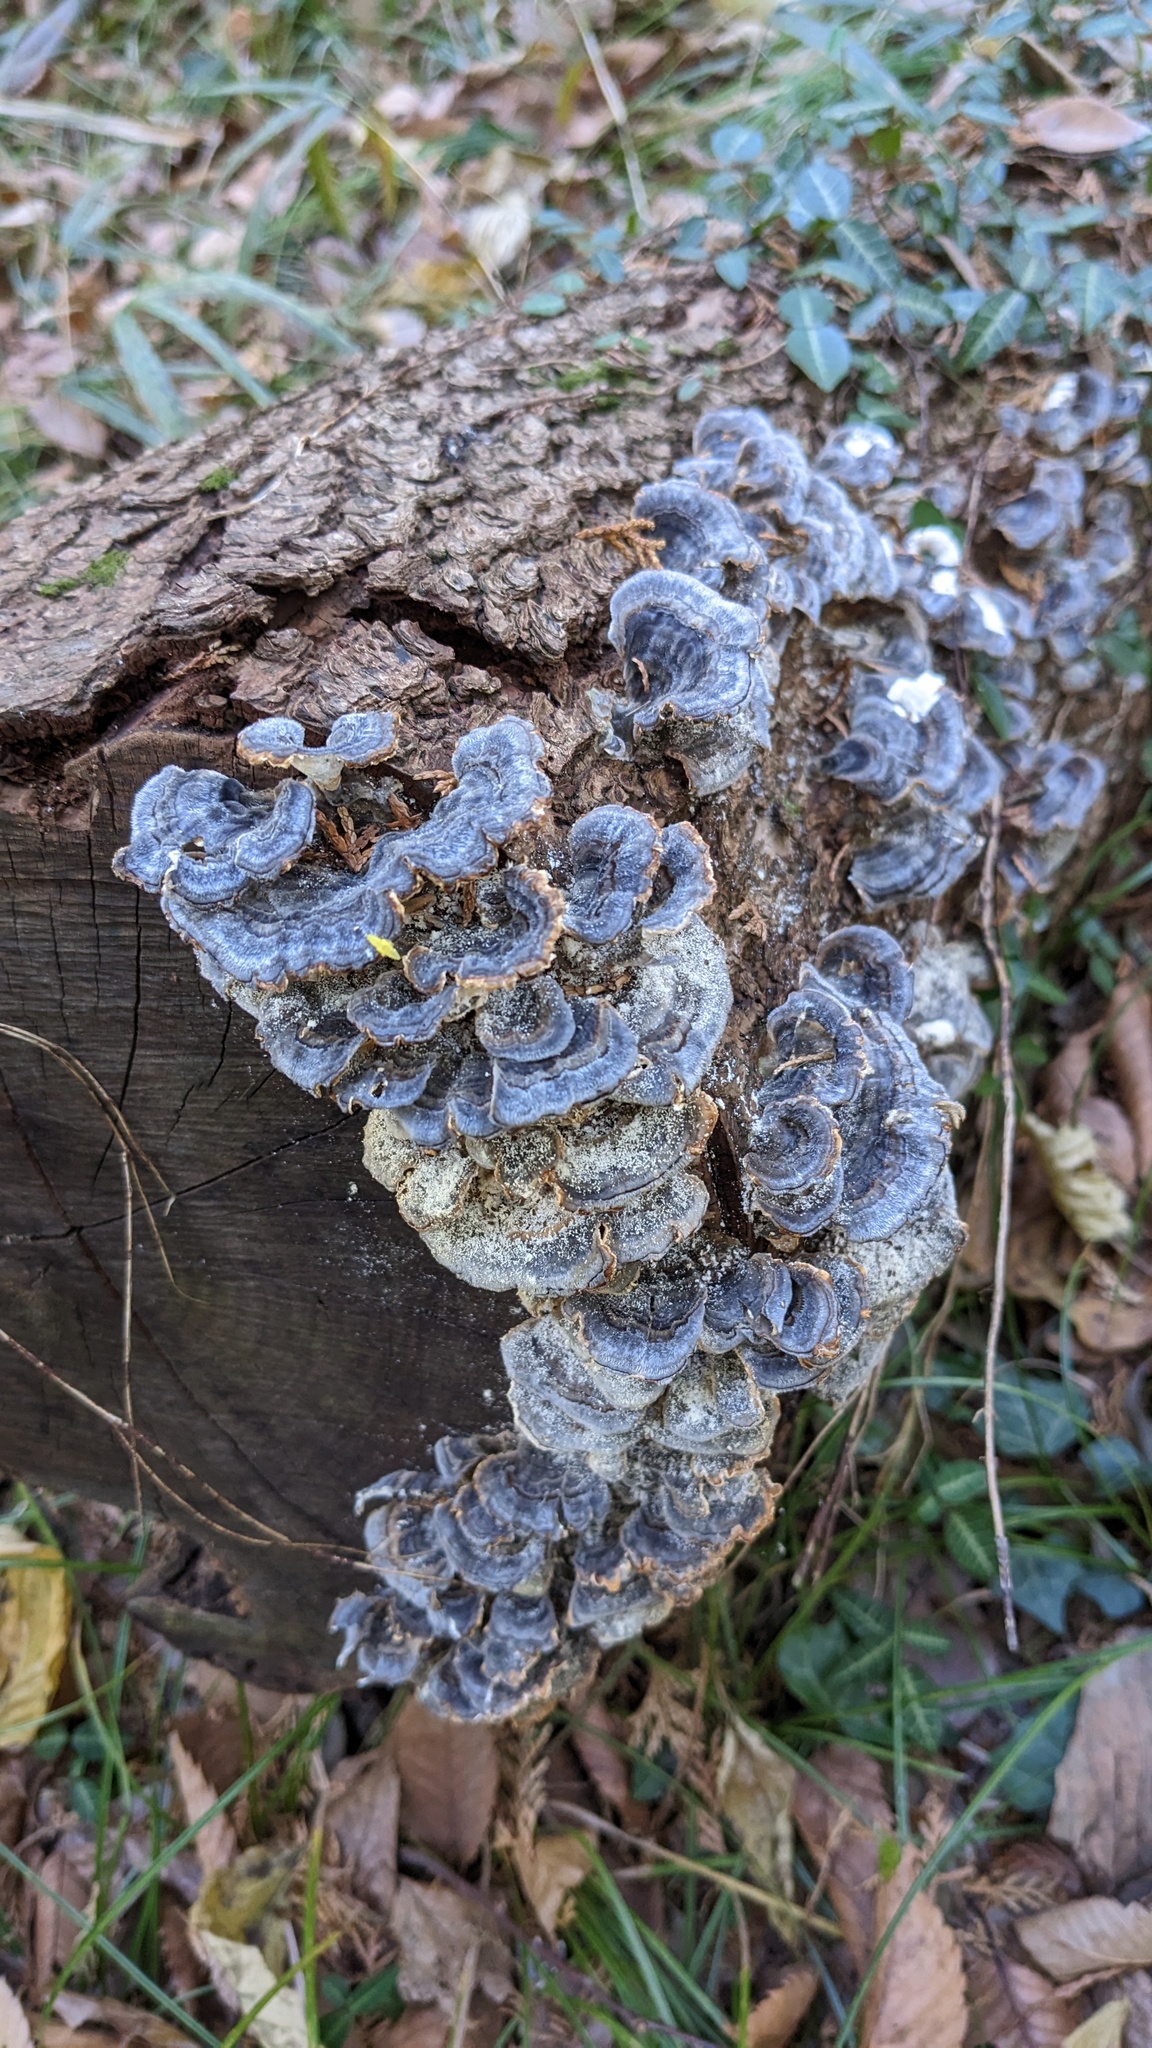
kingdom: Fungi
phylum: Basidiomycota
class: Agaricomycetes
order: Polyporales
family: Polyporaceae
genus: Trametes
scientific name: Trametes versicolor
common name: Turkeytail
